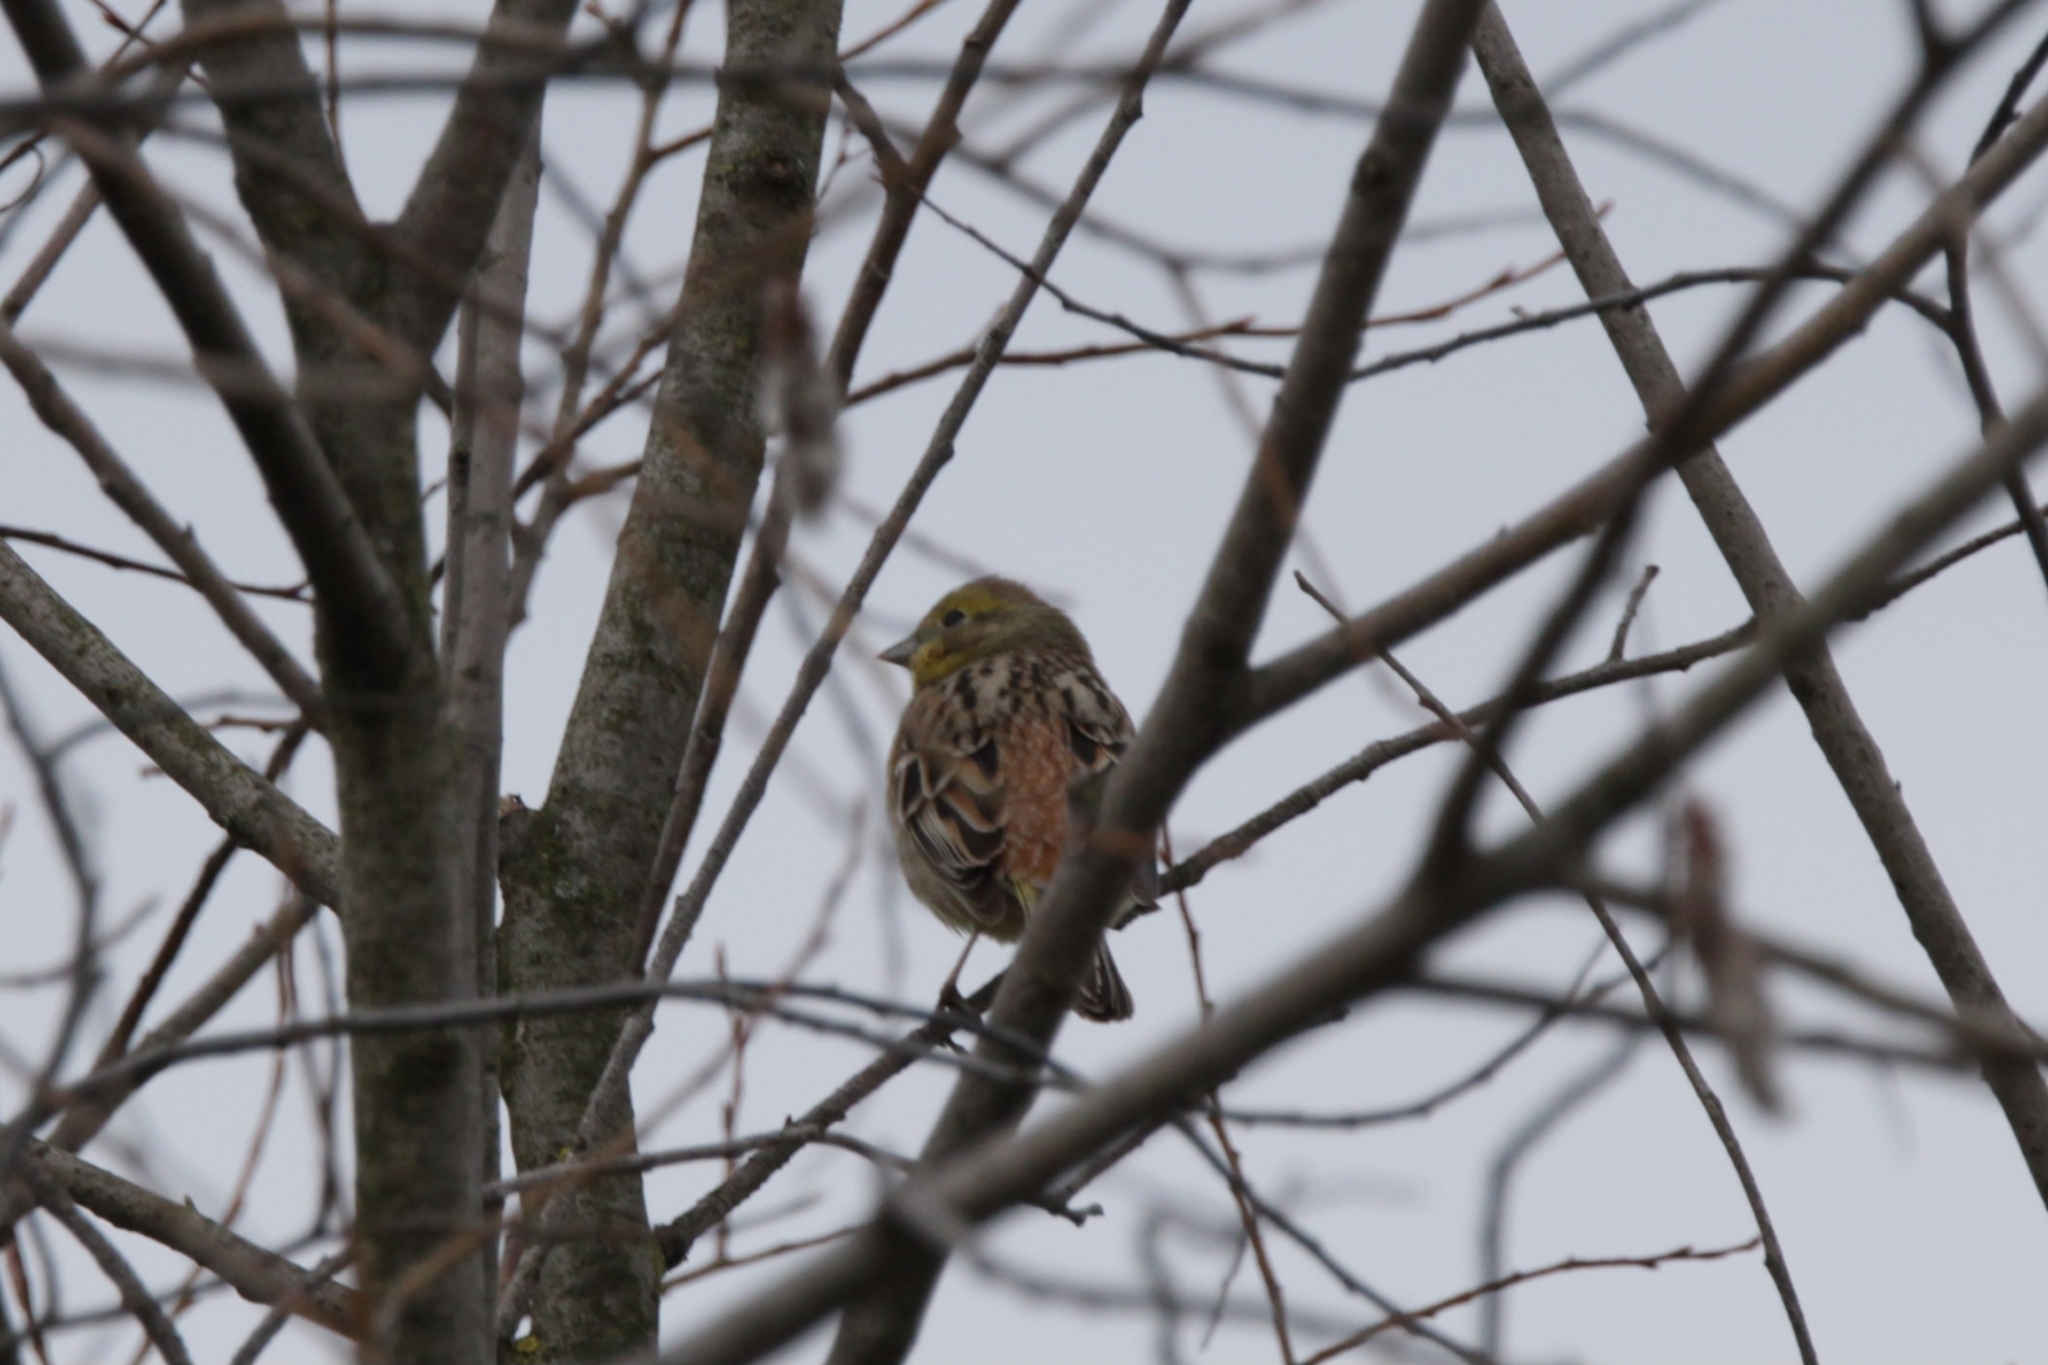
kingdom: Animalia
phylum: Chordata
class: Aves
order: Passeriformes
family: Emberizidae
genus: Emberiza
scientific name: Emberiza citrinella
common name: Yellowhammer
